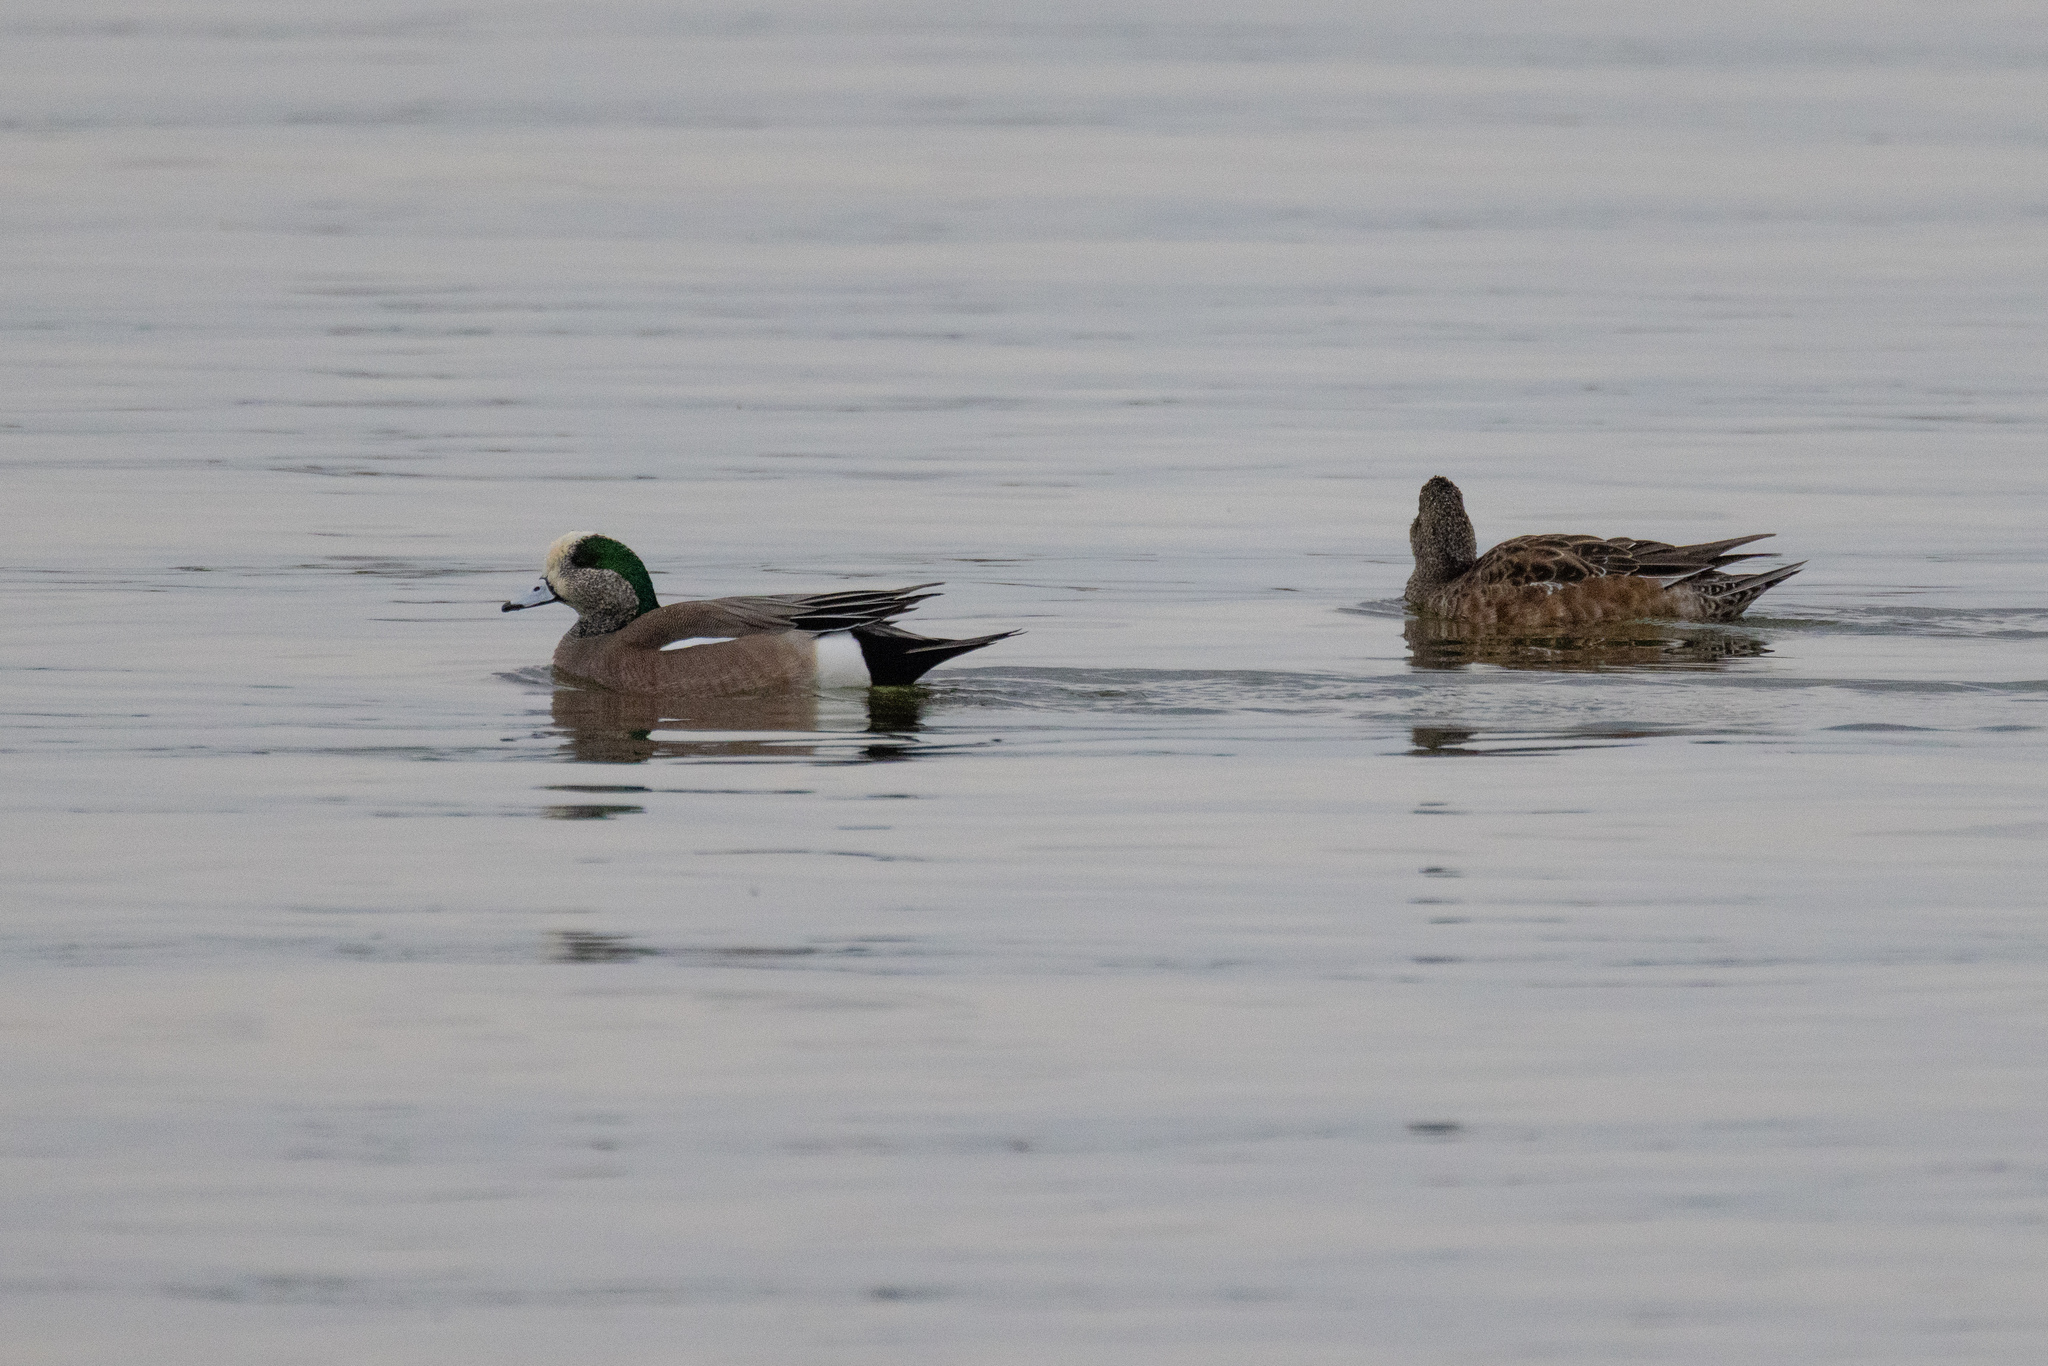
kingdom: Animalia
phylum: Chordata
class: Aves
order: Anseriformes
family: Anatidae
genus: Mareca
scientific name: Mareca americana
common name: American wigeon
